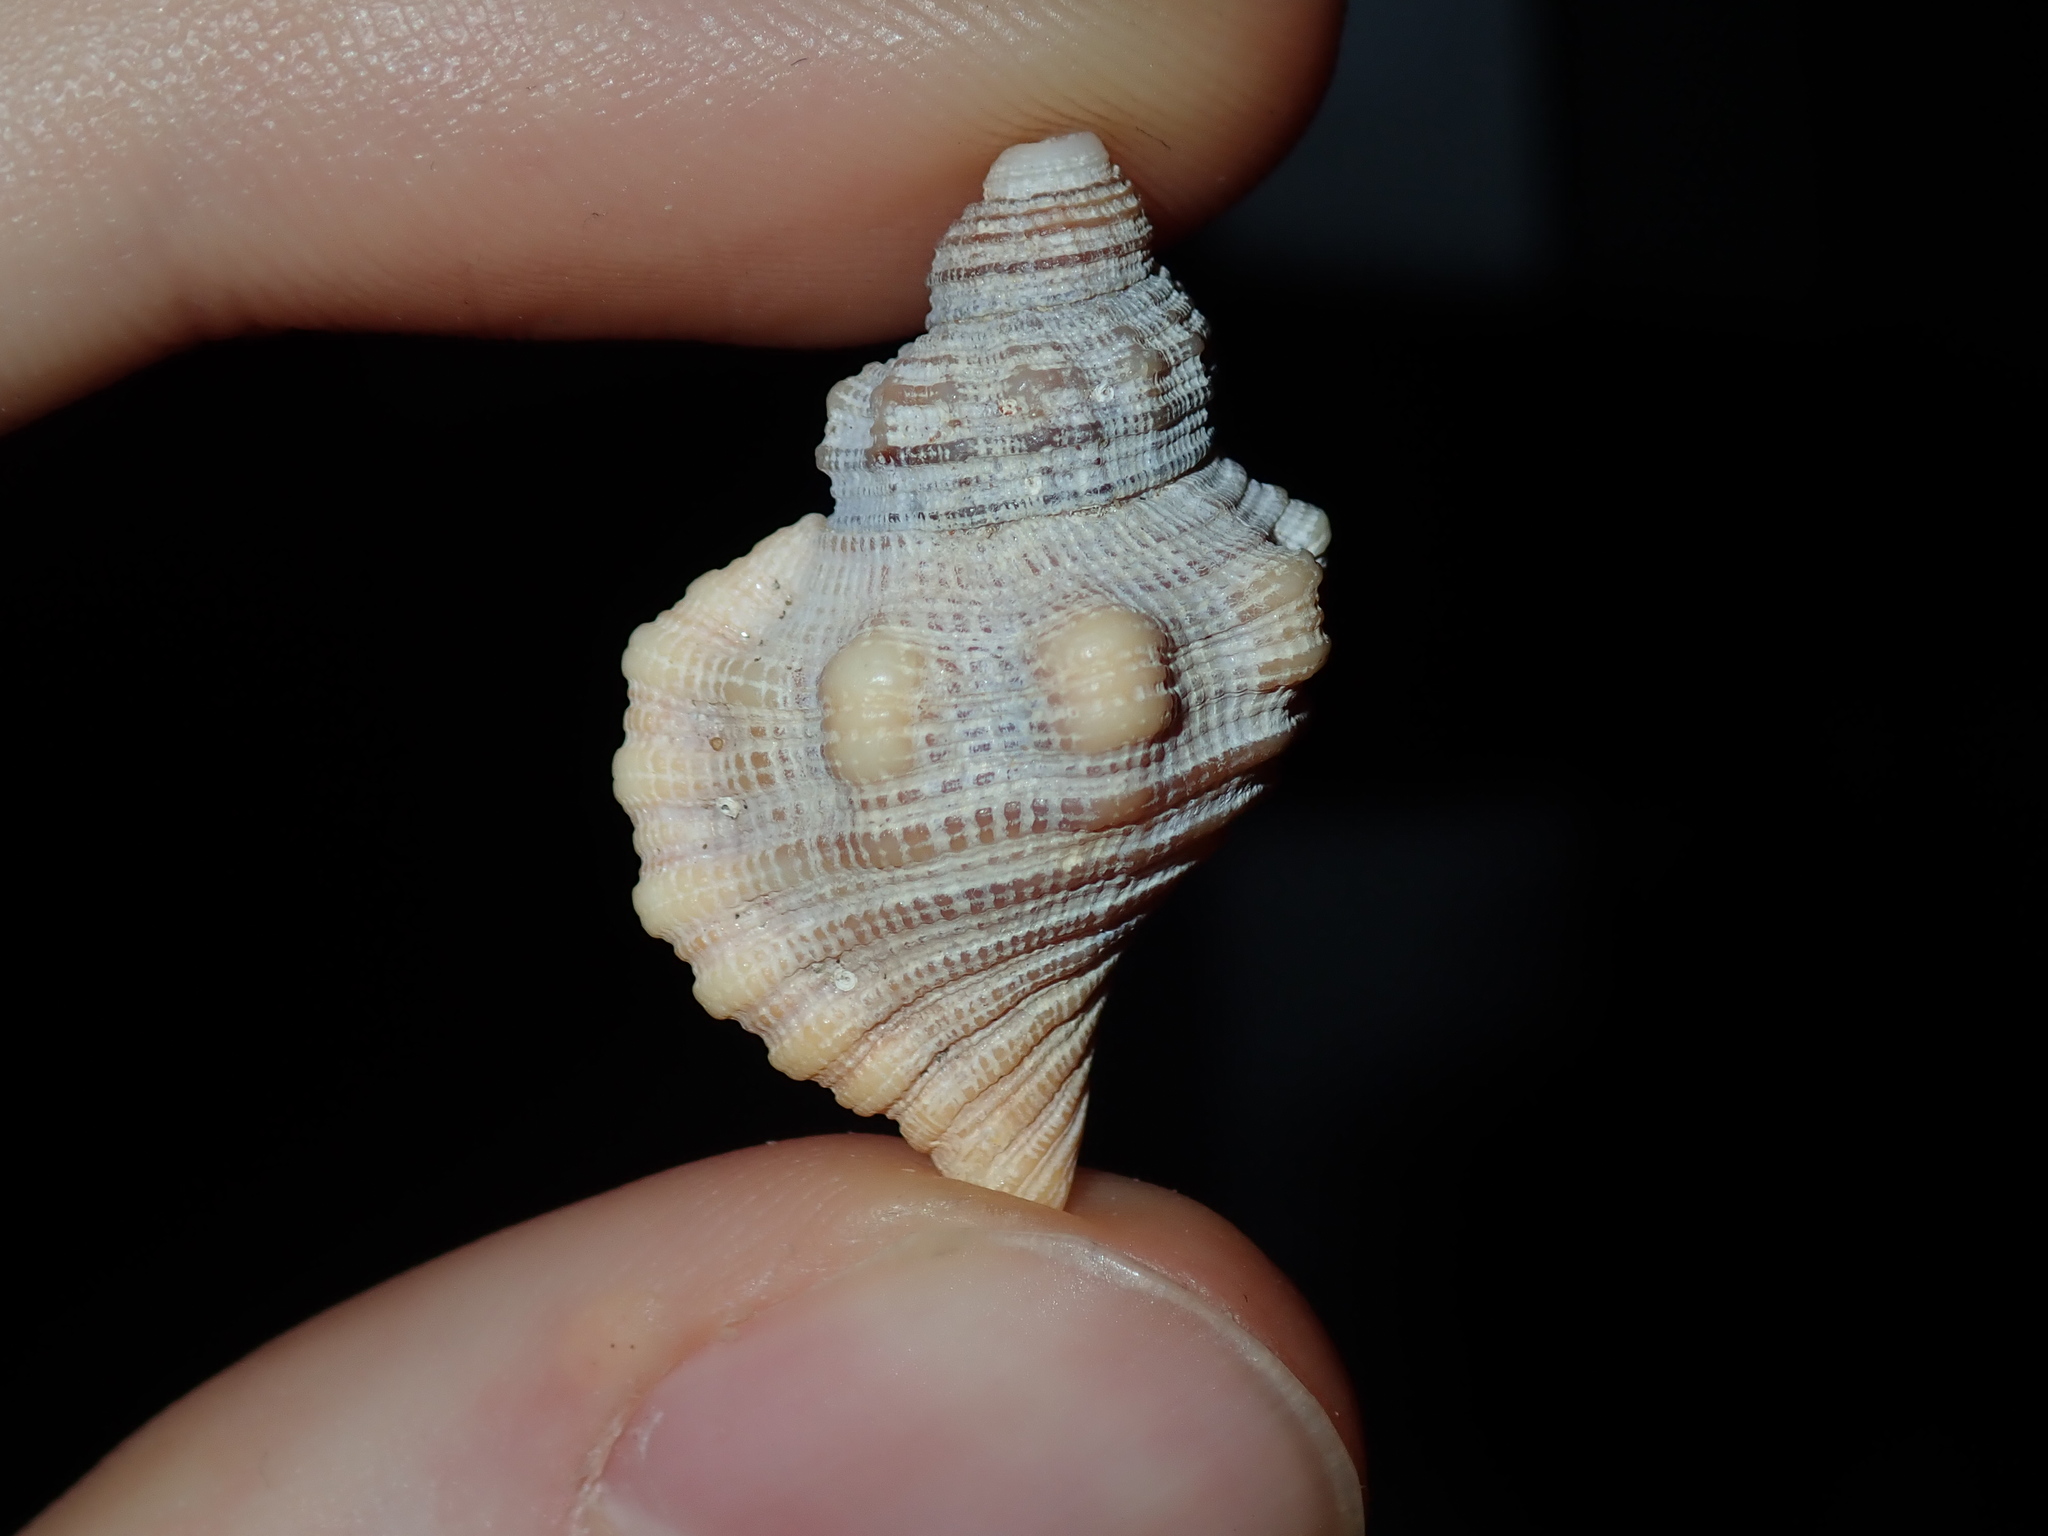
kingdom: Animalia
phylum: Mollusca
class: Gastropoda
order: Littorinimorpha
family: Cymatiidae
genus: Cabestana
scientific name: Cabestana spengleri
